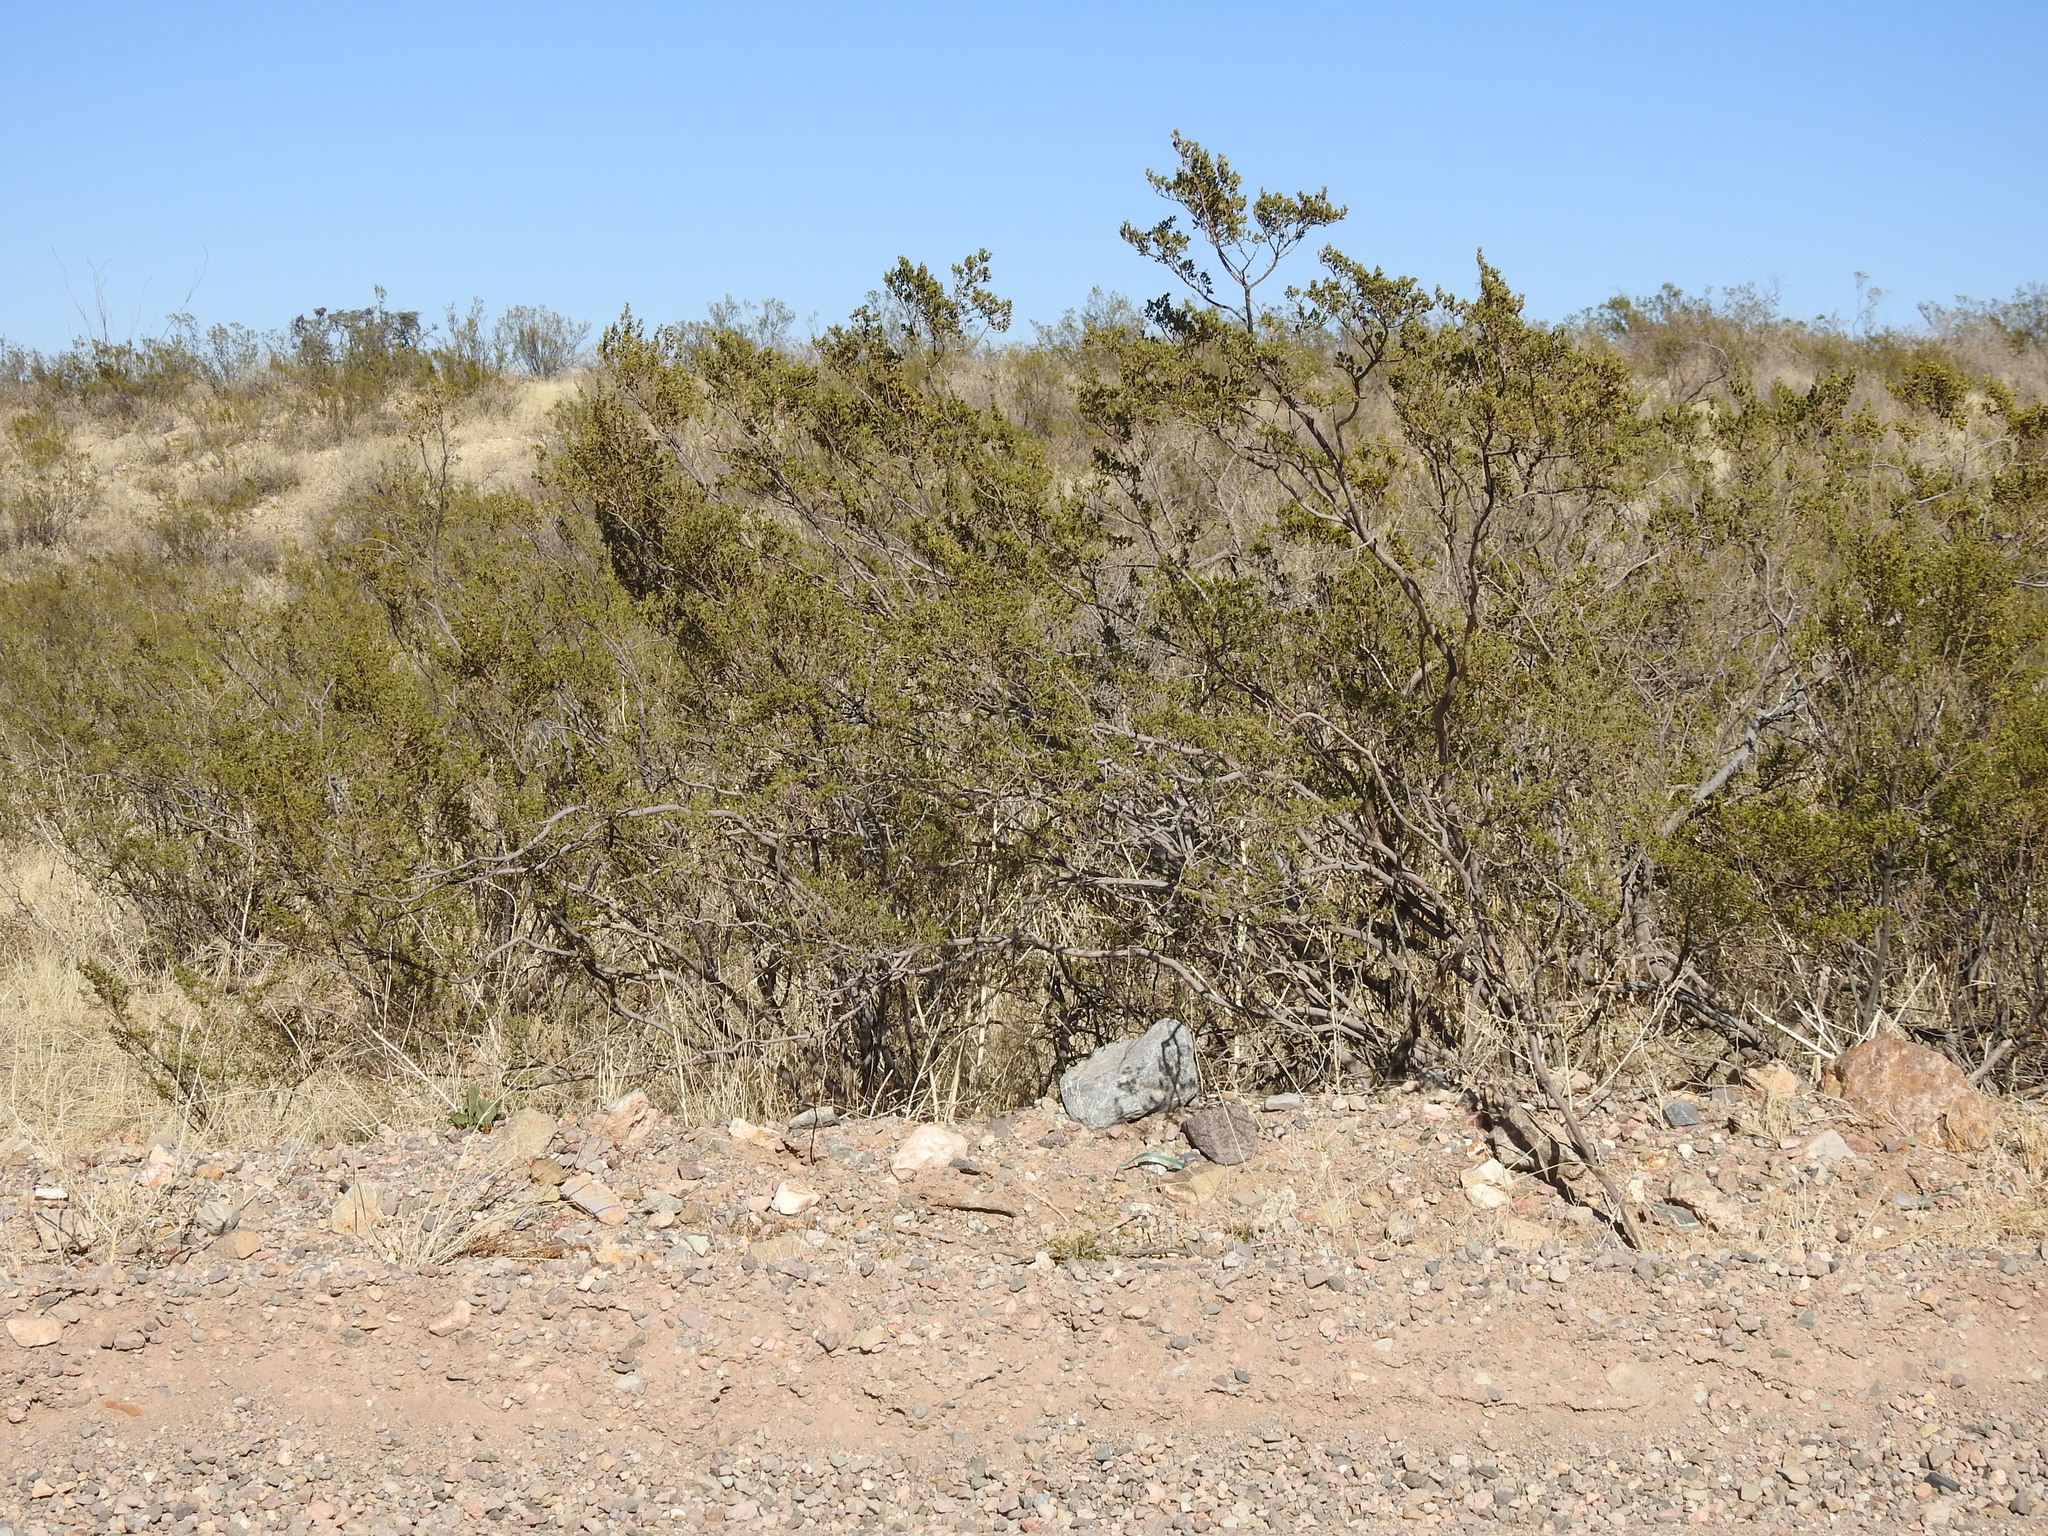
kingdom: Plantae
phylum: Tracheophyta
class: Magnoliopsida
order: Zygophyllales
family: Zygophyllaceae
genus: Larrea
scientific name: Larrea tridentata
